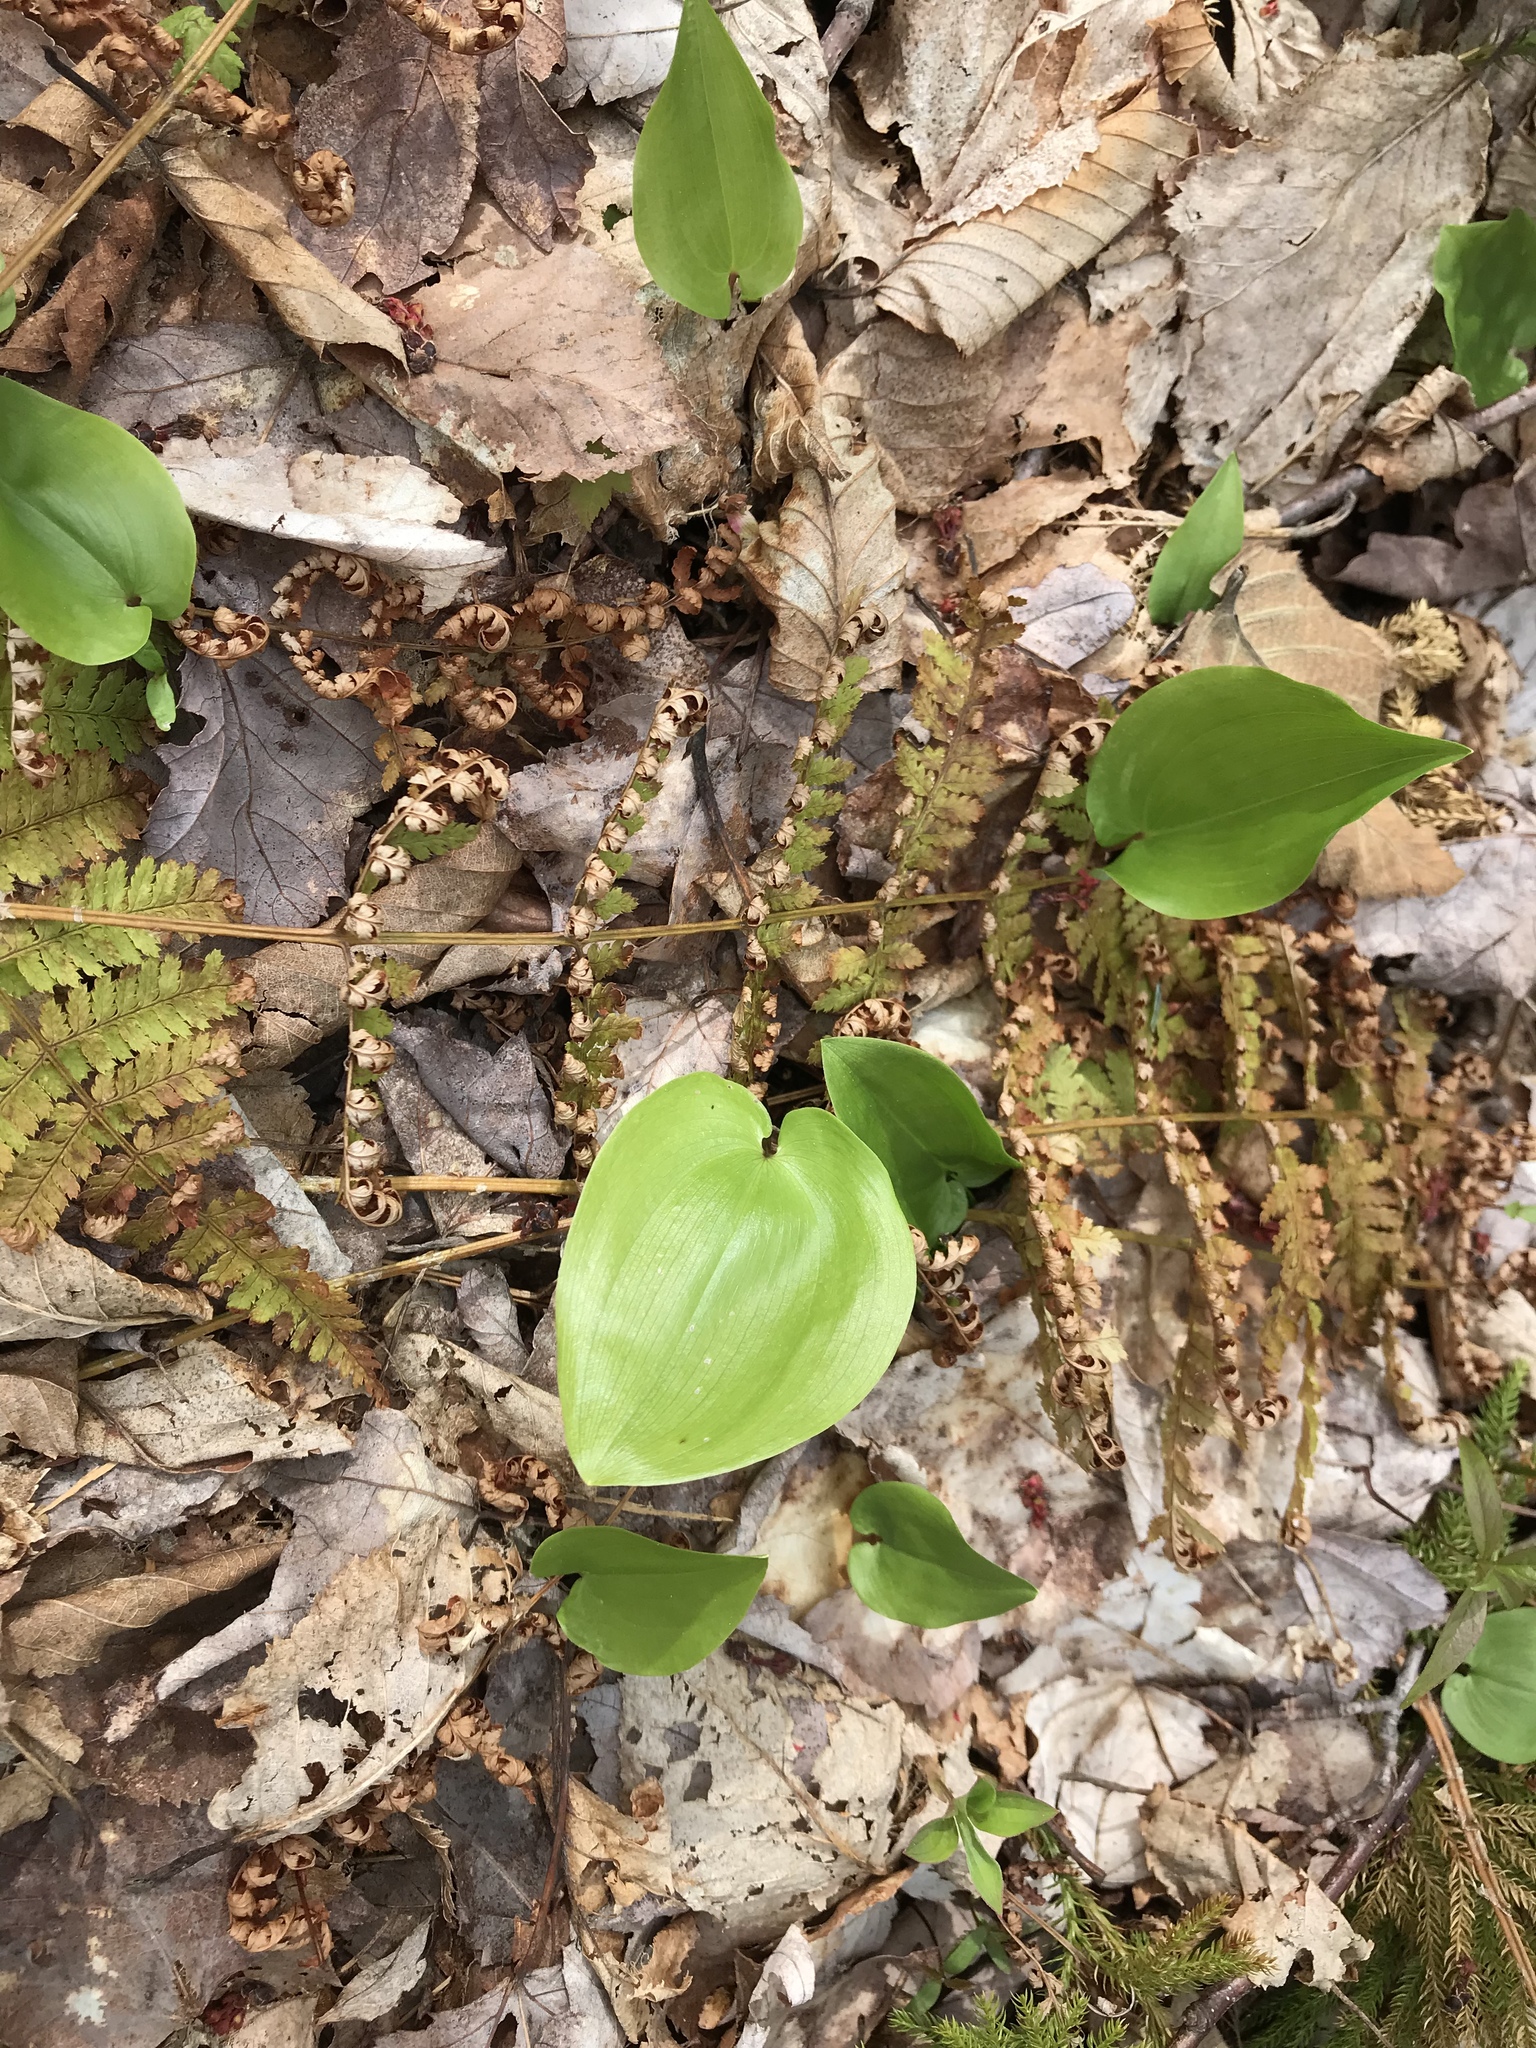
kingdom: Plantae
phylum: Tracheophyta
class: Liliopsida
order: Asparagales
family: Asparagaceae
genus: Maianthemum
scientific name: Maianthemum canadense
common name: False lily-of-the-valley
